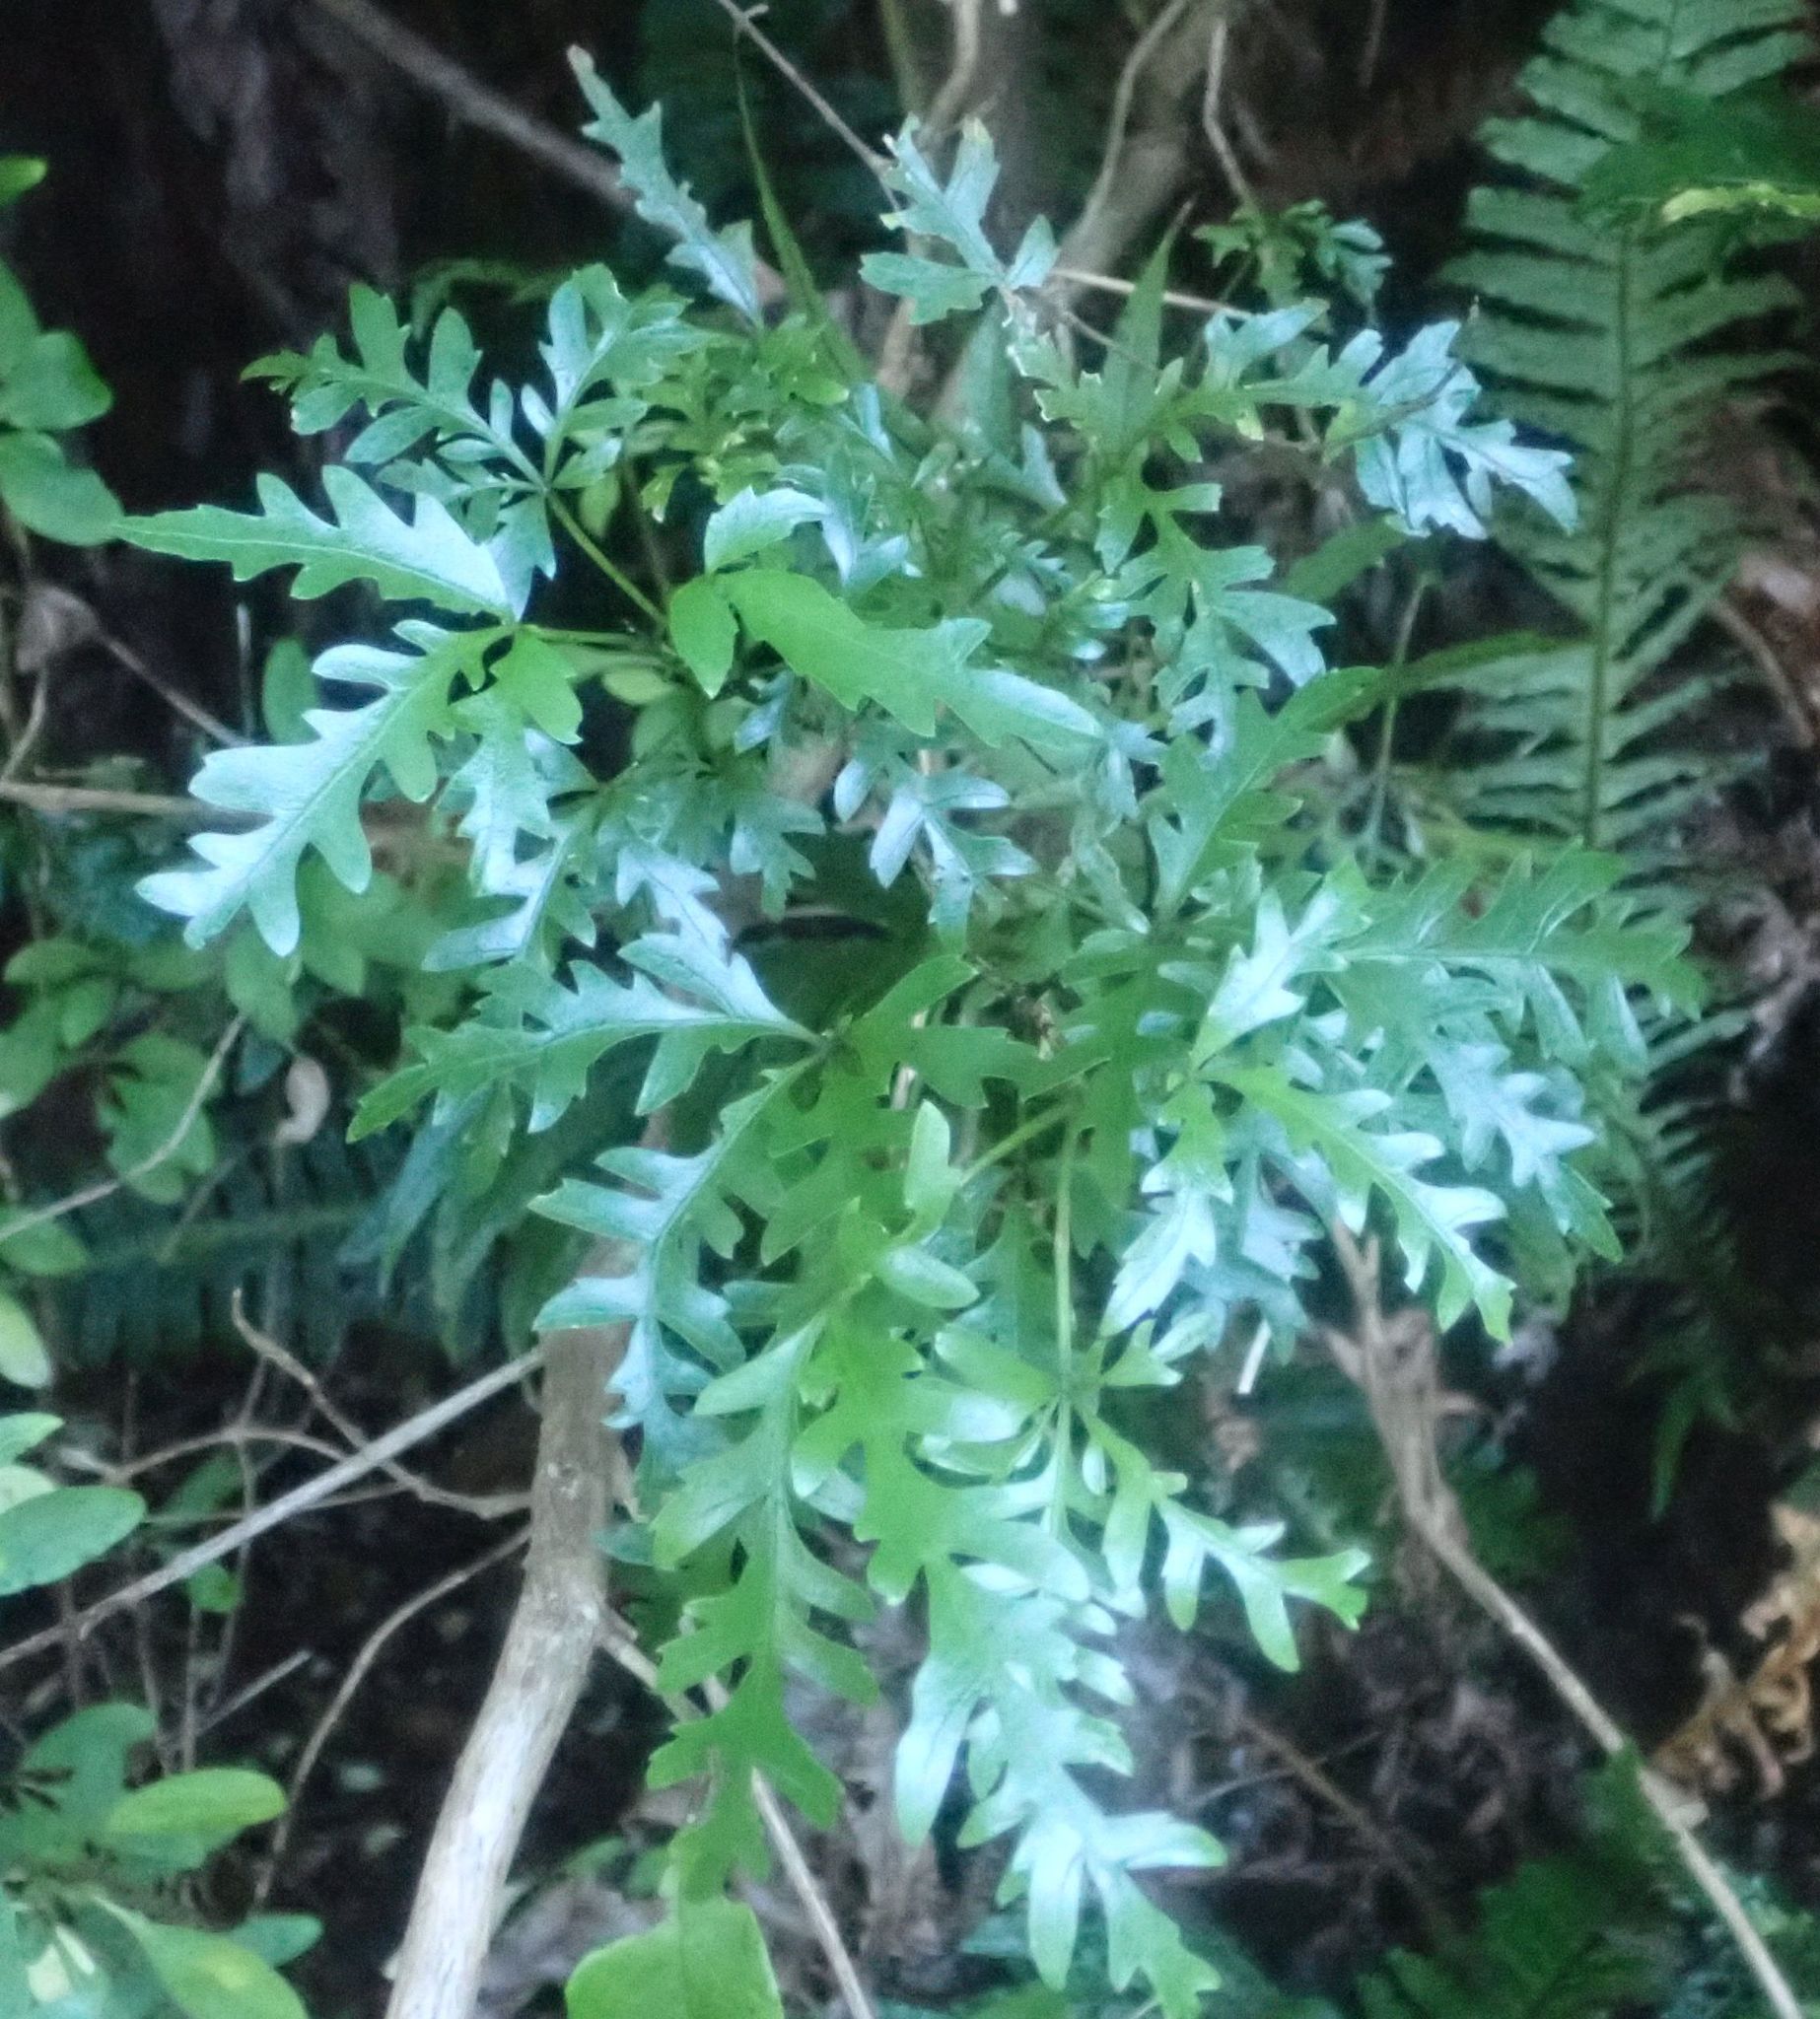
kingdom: Plantae
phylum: Tracheophyta
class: Magnoliopsida
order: Apiales
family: Araliaceae
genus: Raukaua
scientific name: Raukaua simplex
